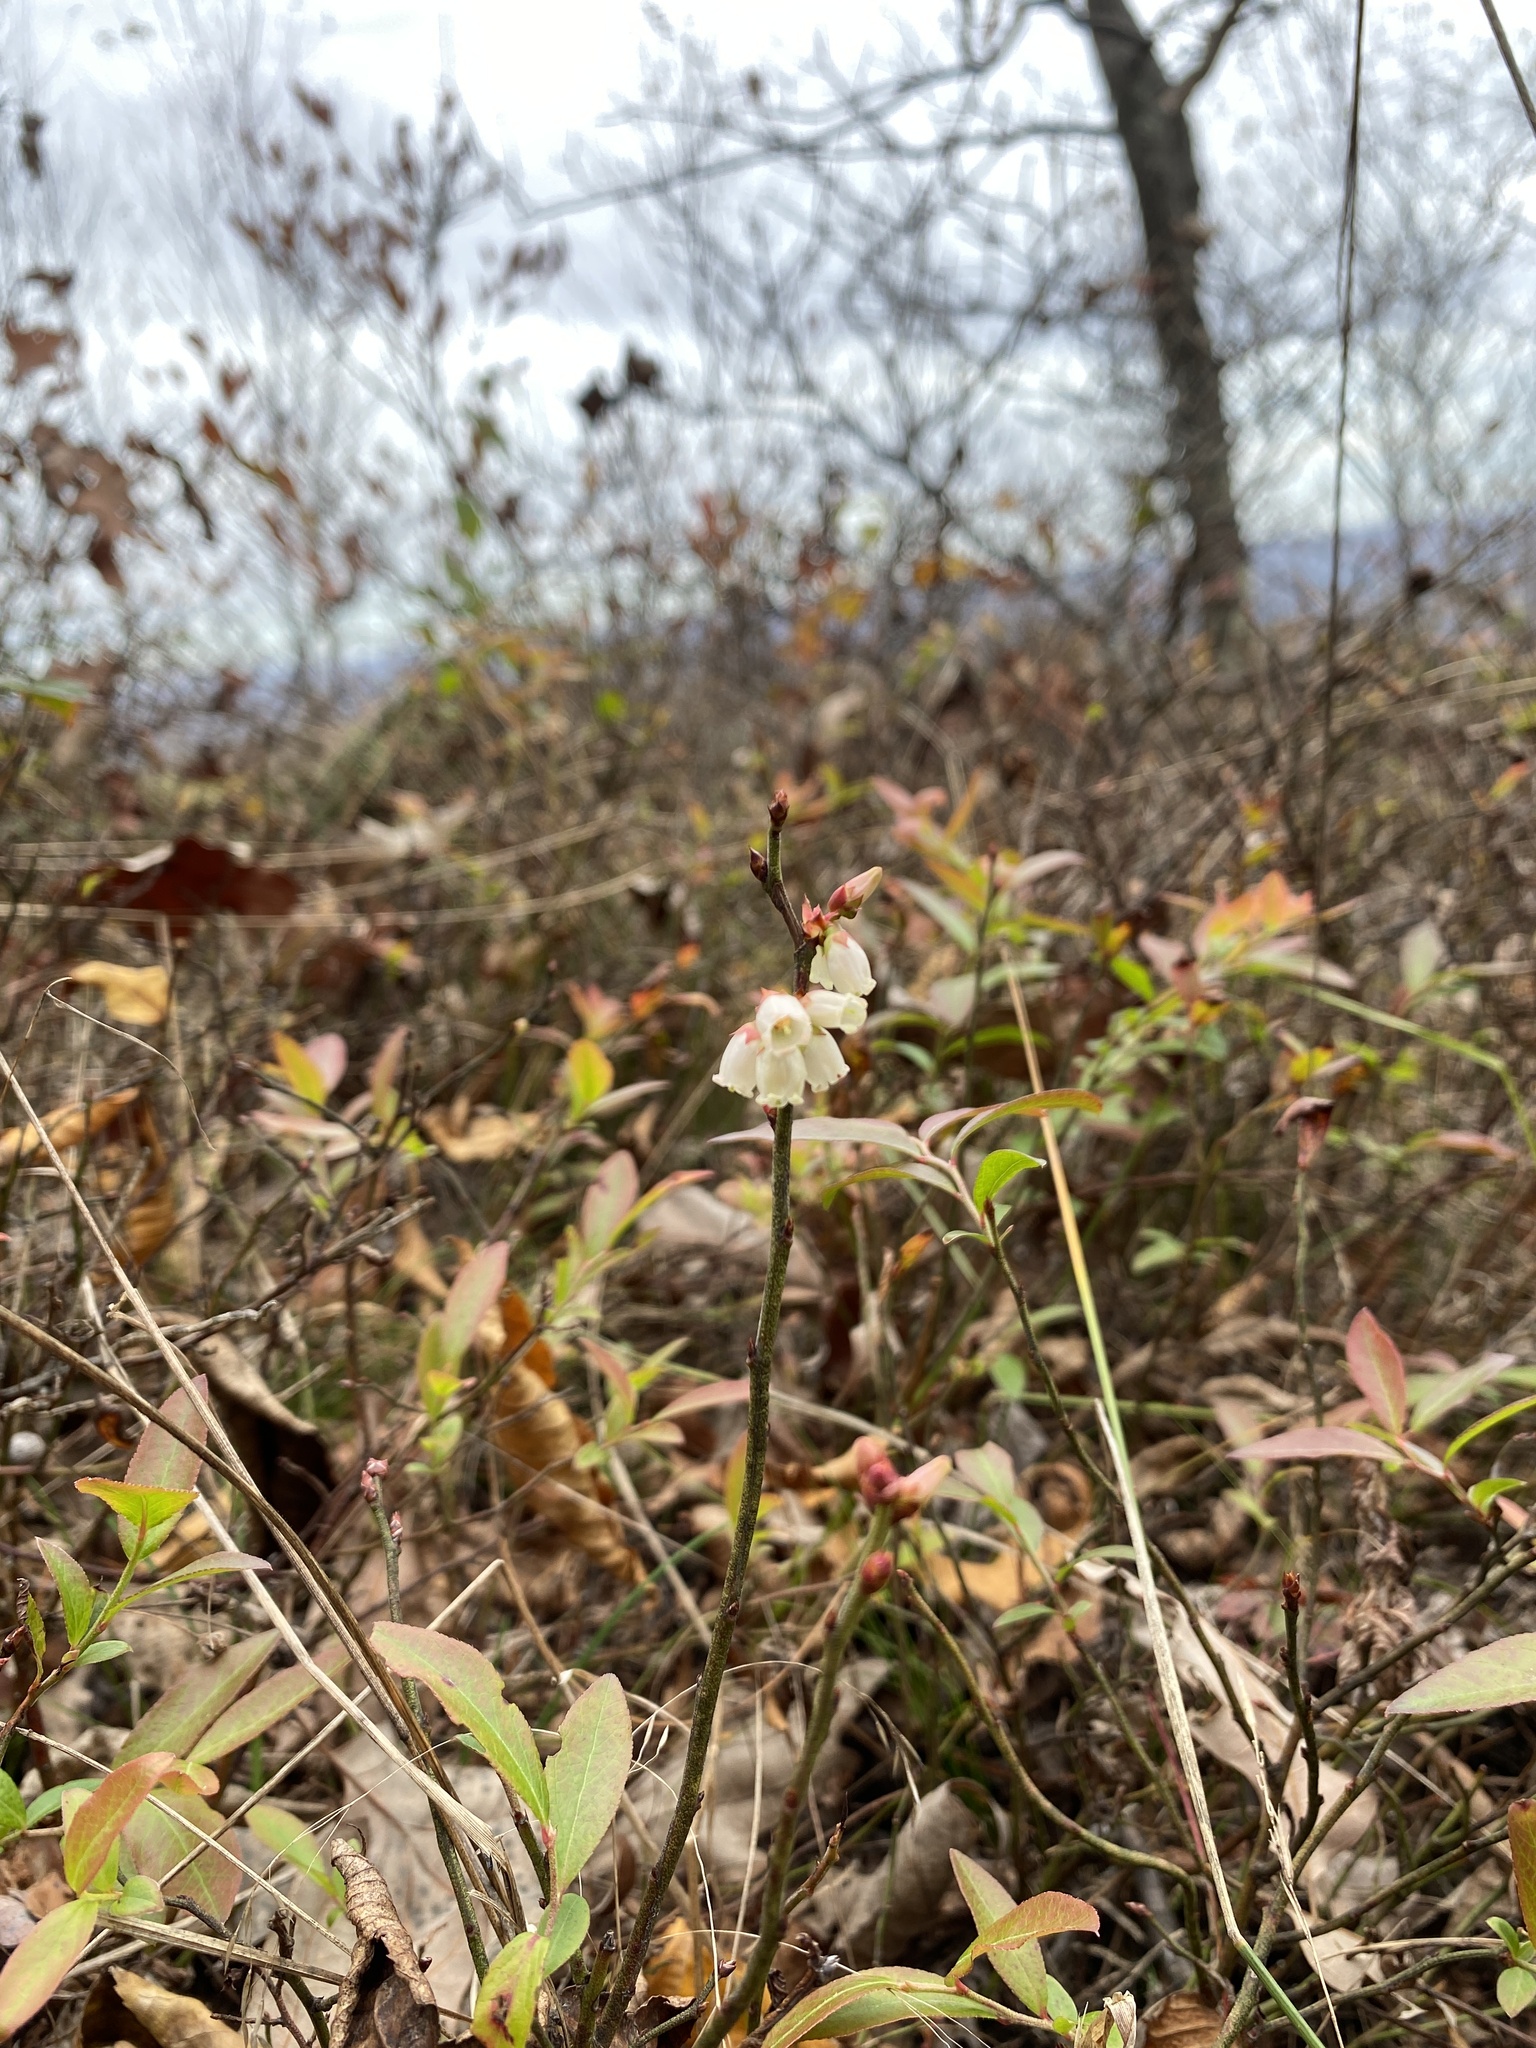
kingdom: Plantae
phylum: Tracheophyta
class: Magnoliopsida
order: Ericales
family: Ericaceae
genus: Vaccinium
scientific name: Vaccinium angustifolium
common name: Early lowbush blueberry
